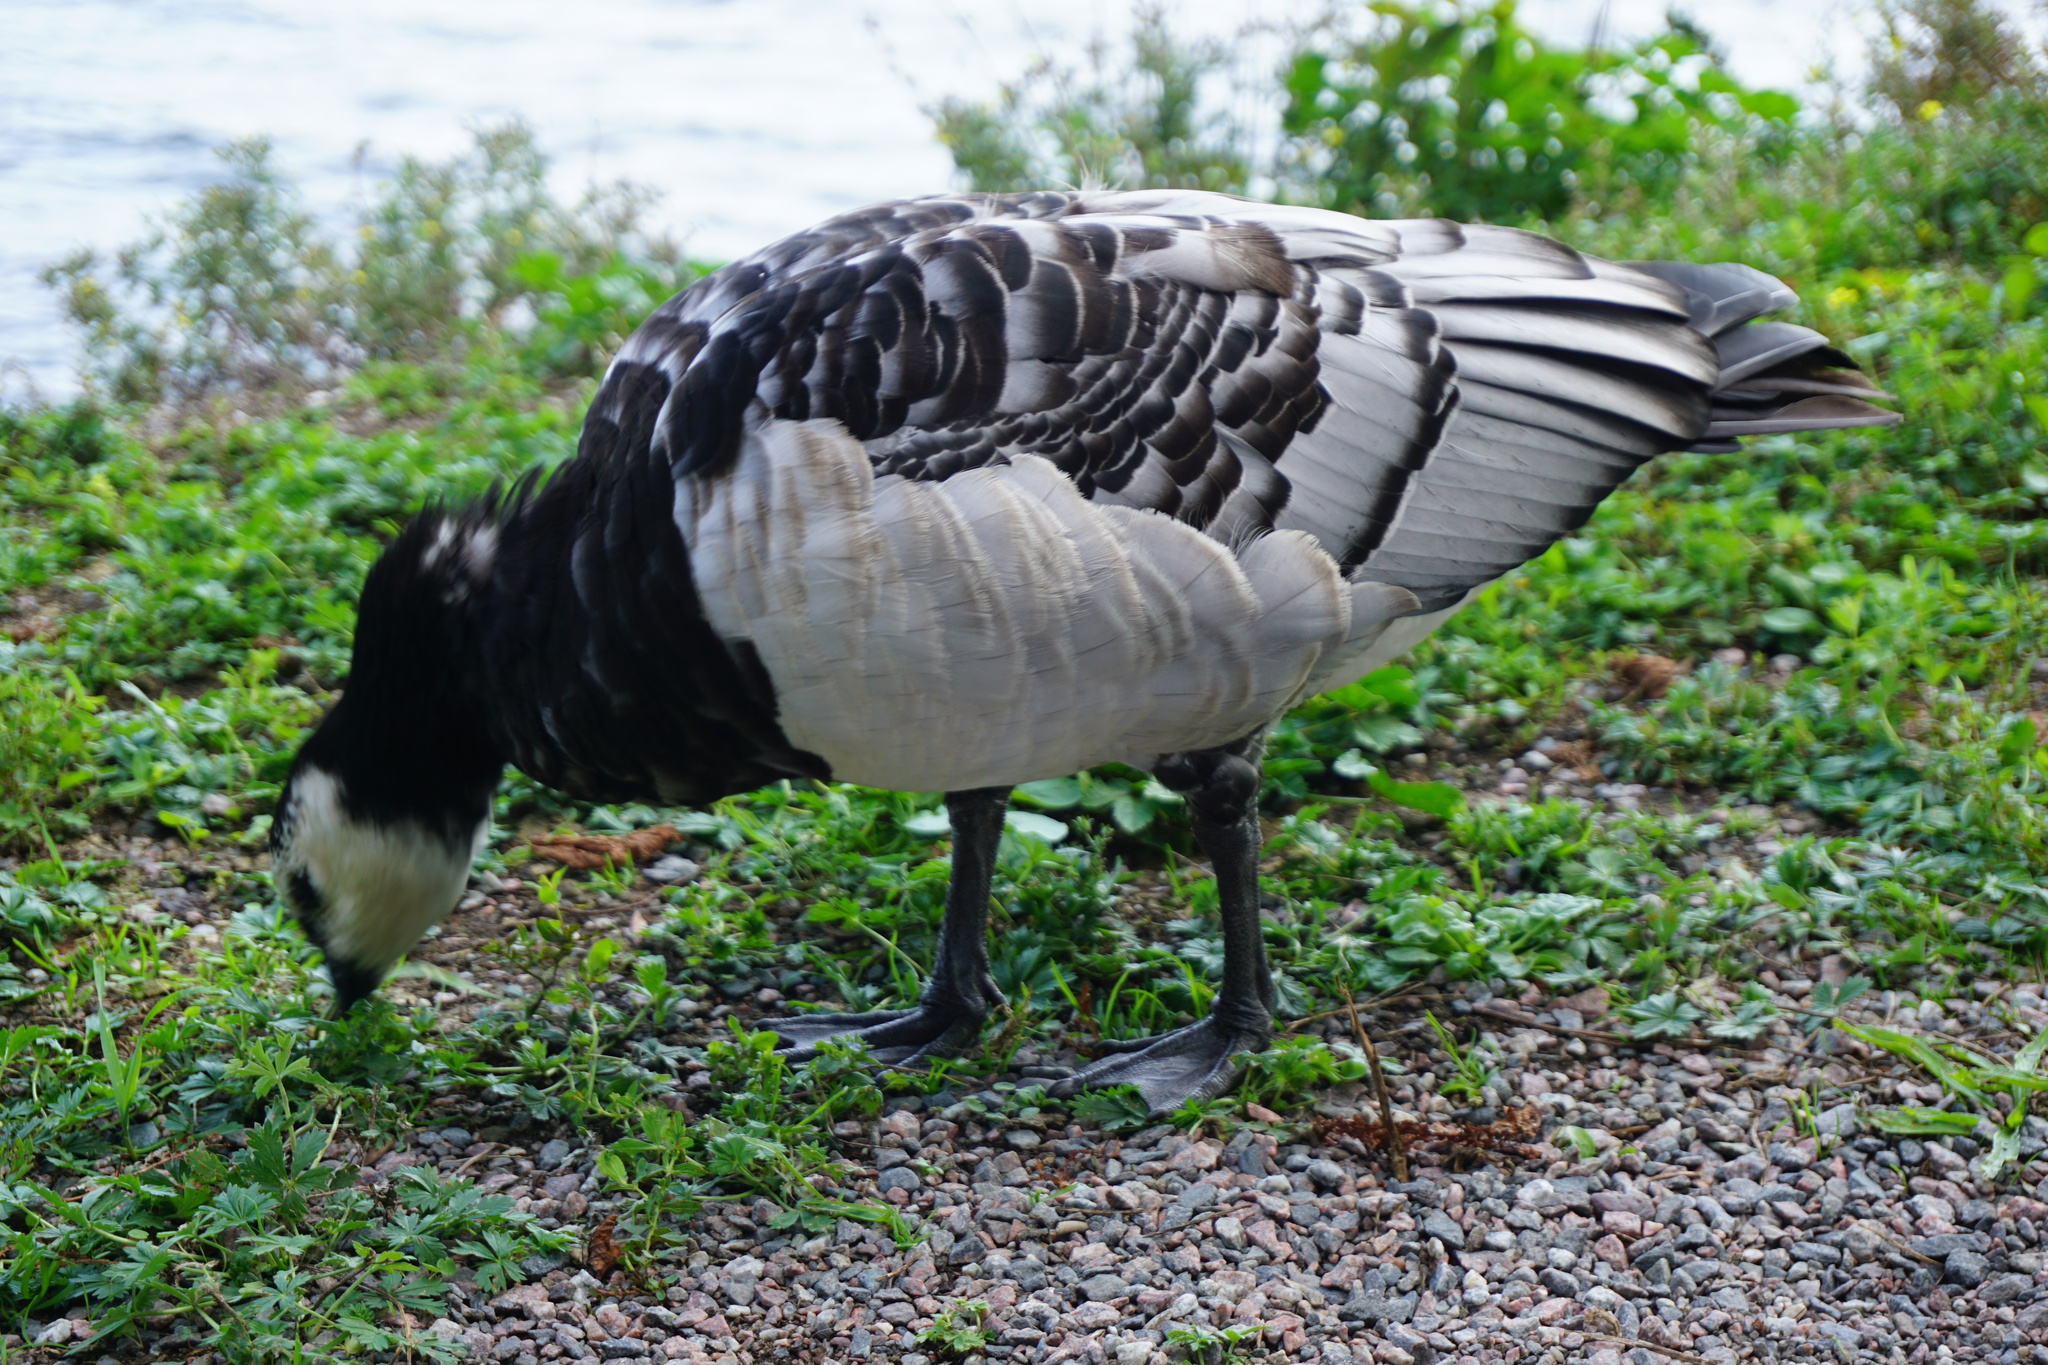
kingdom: Animalia
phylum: Chordata
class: Aves
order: Anseriformes
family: Anatidae
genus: Branta
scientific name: Branta leucopsis
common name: Barnacle goose
